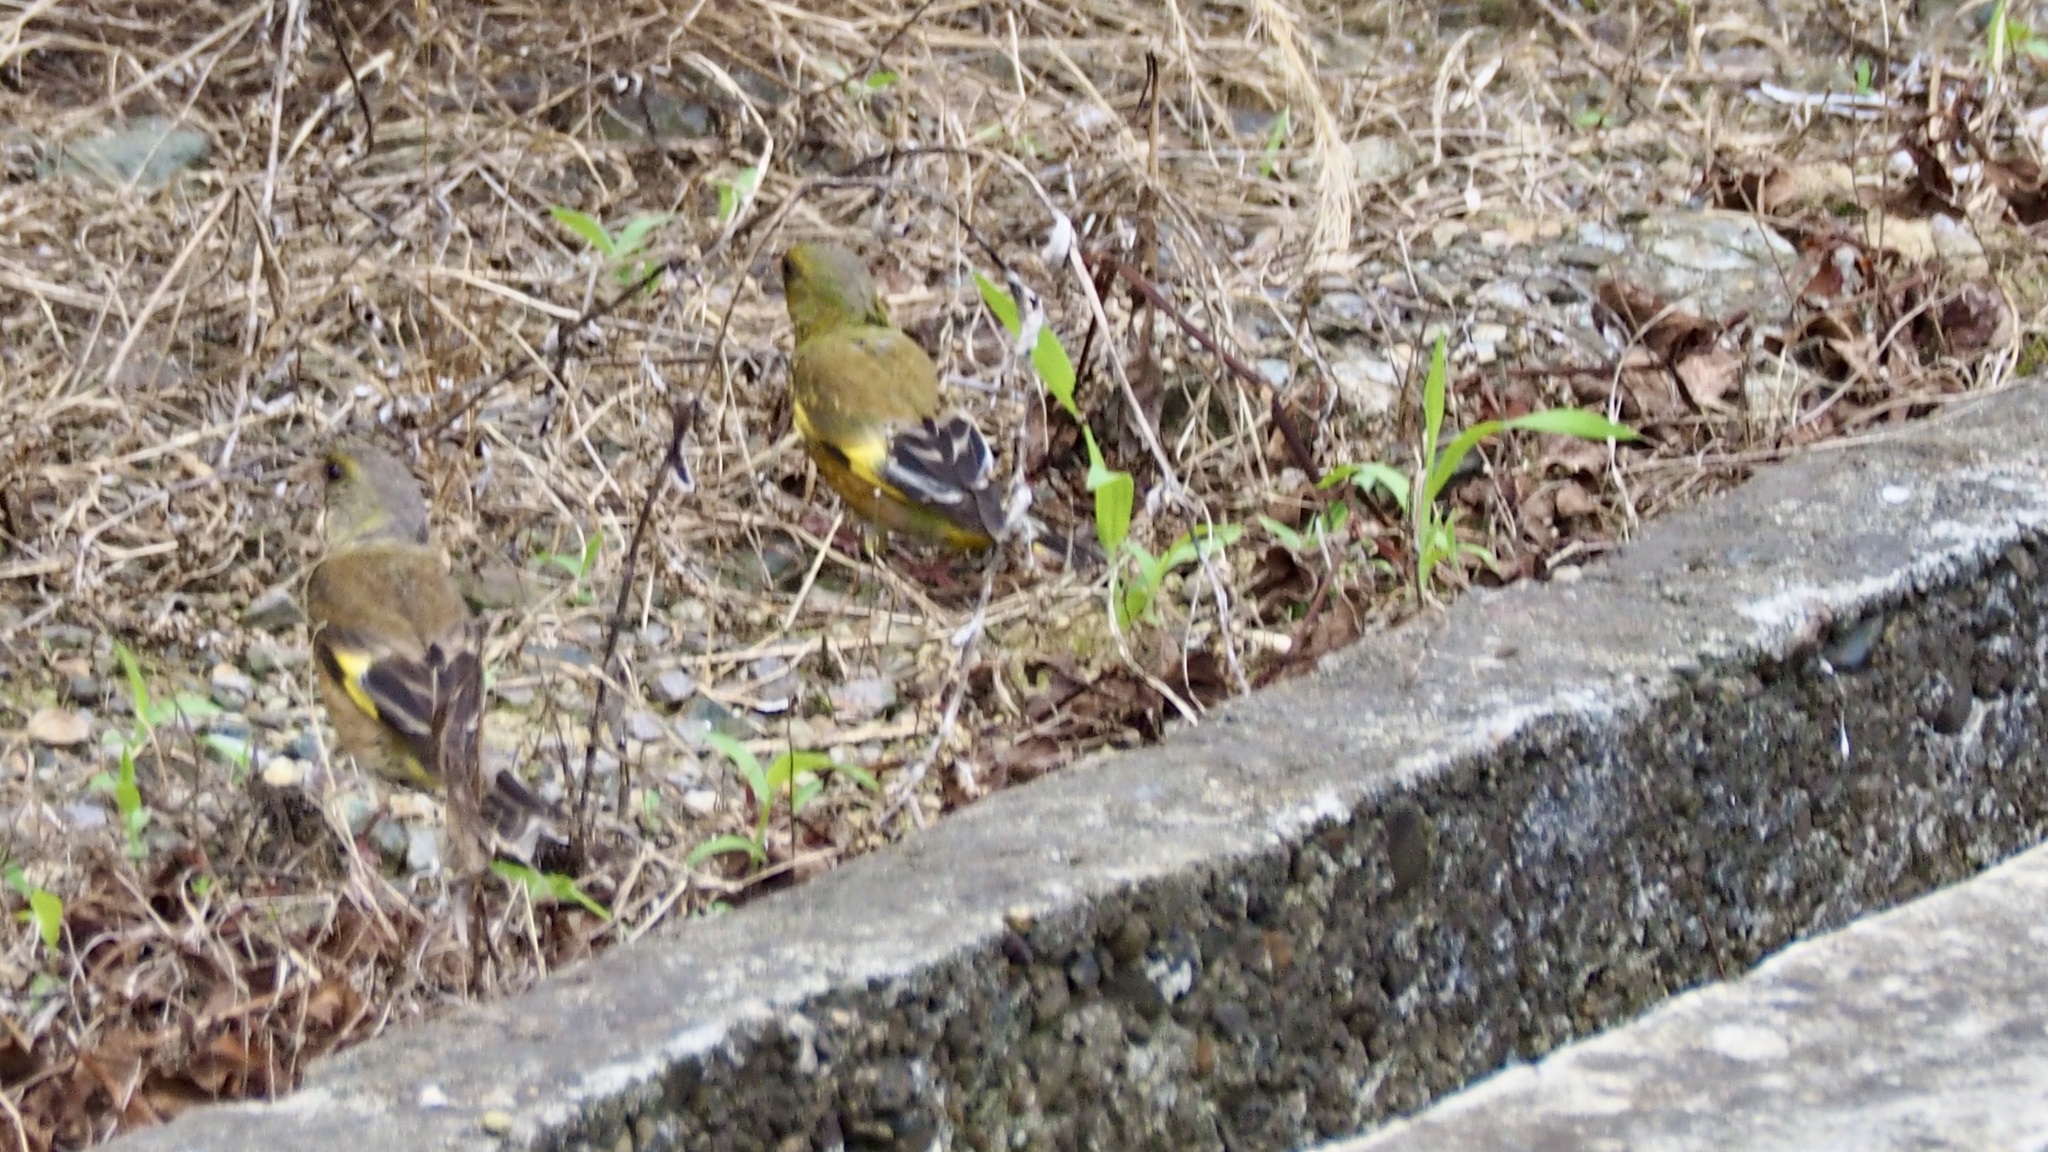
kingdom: Plantae
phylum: Tracheophyta
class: Liliopsida
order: Poales
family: Poaceae
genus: Chloris
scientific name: Chloris sinica
